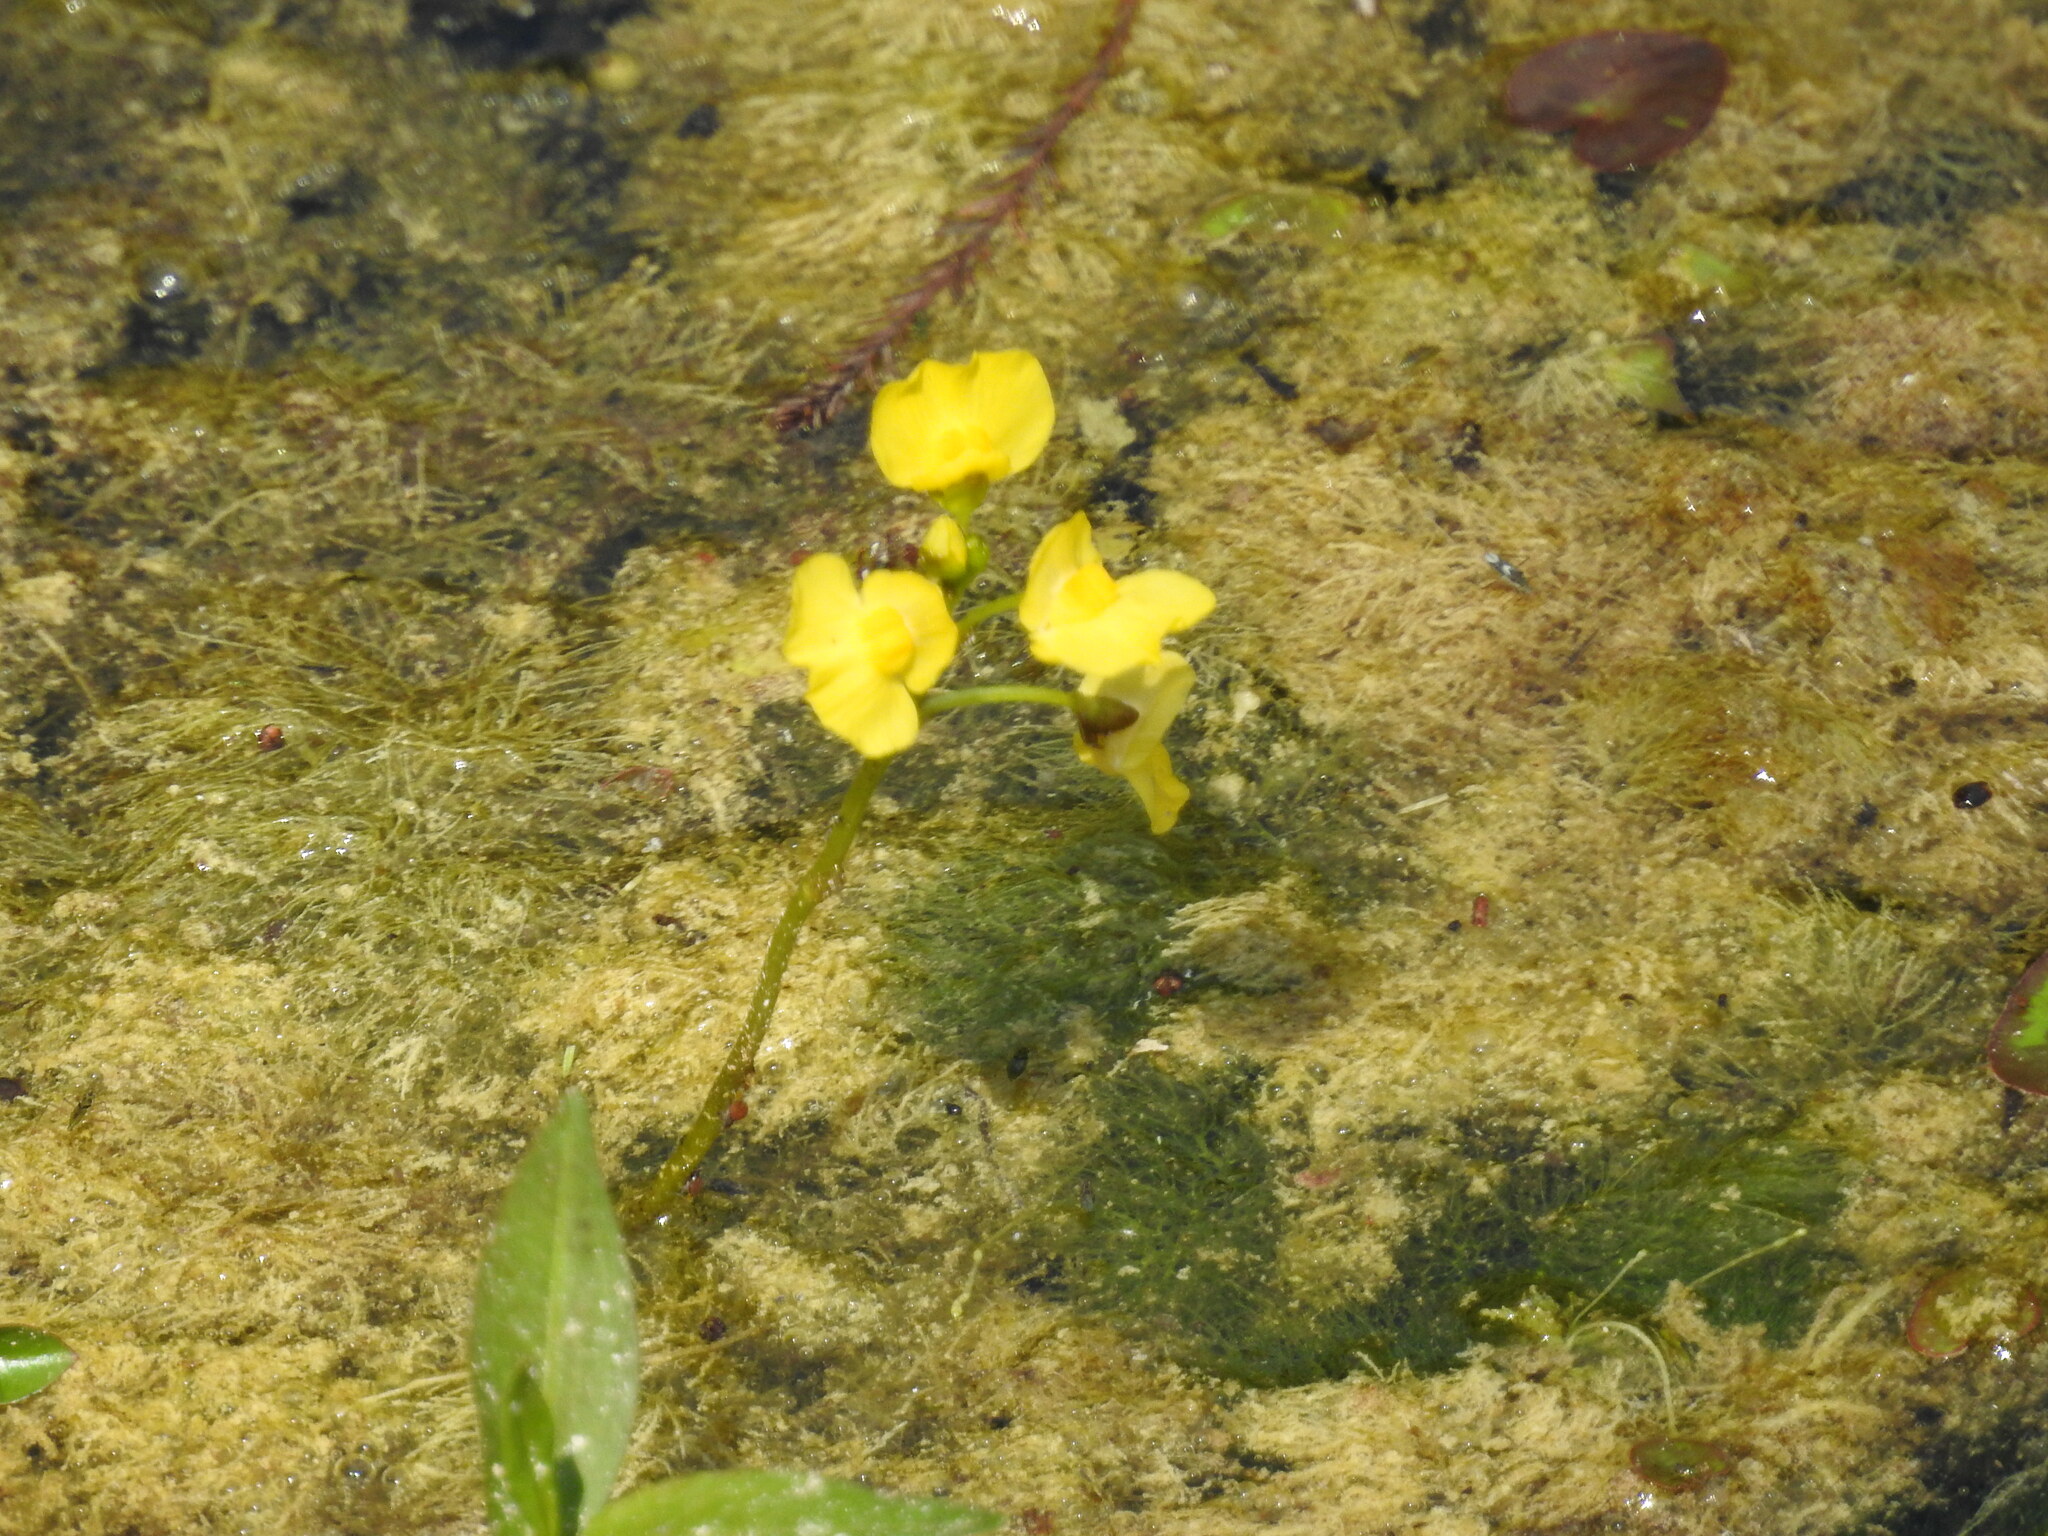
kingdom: Plantae
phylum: Tracheophyta
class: Magnoliopsida
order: Lamiales
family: Lentibulariaceae
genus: Utricularia
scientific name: Utricularia foliosa
